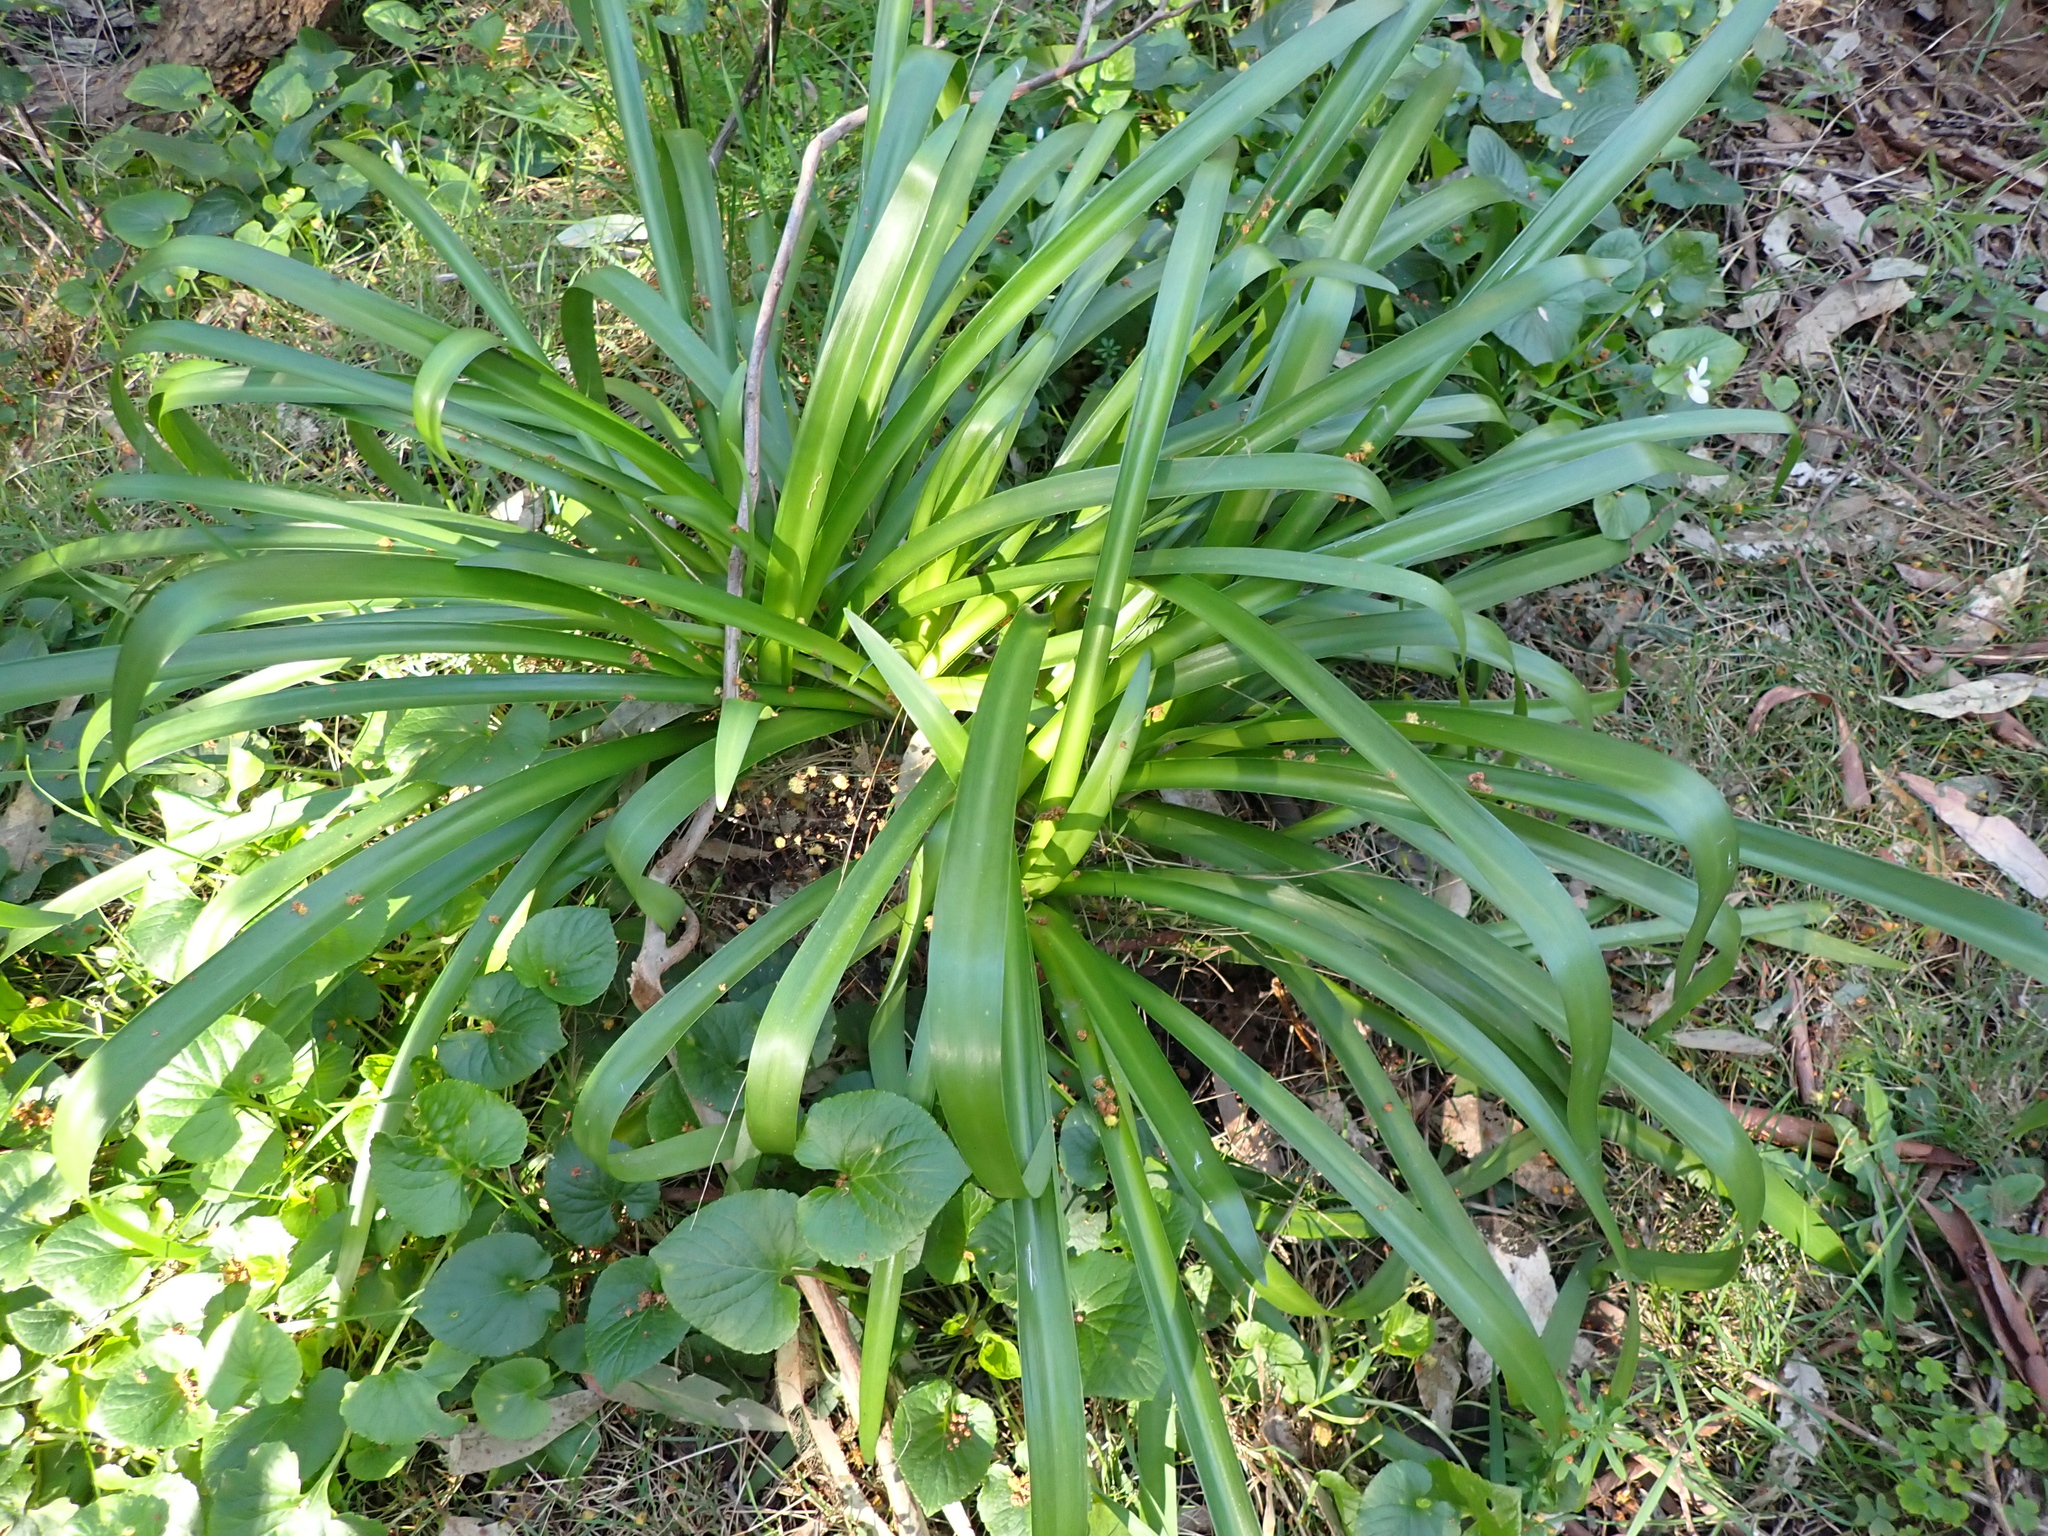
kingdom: Plantae
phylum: Tracheophyta
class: Liliopsida
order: Asparagales
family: Amaryllidaceae
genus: Agapanthus
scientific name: Agapanthus praecox
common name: African-lily
